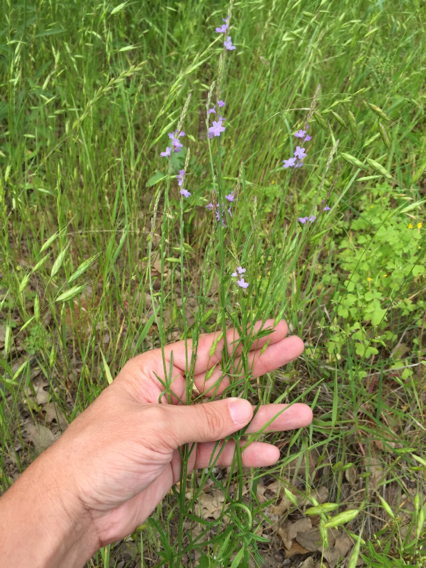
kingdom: Plantae
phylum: Tracheophyta
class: Magnoliopsida
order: Lamiales
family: Verbenaceae
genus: Verbena
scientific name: Verbena halei
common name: Texas vervain
